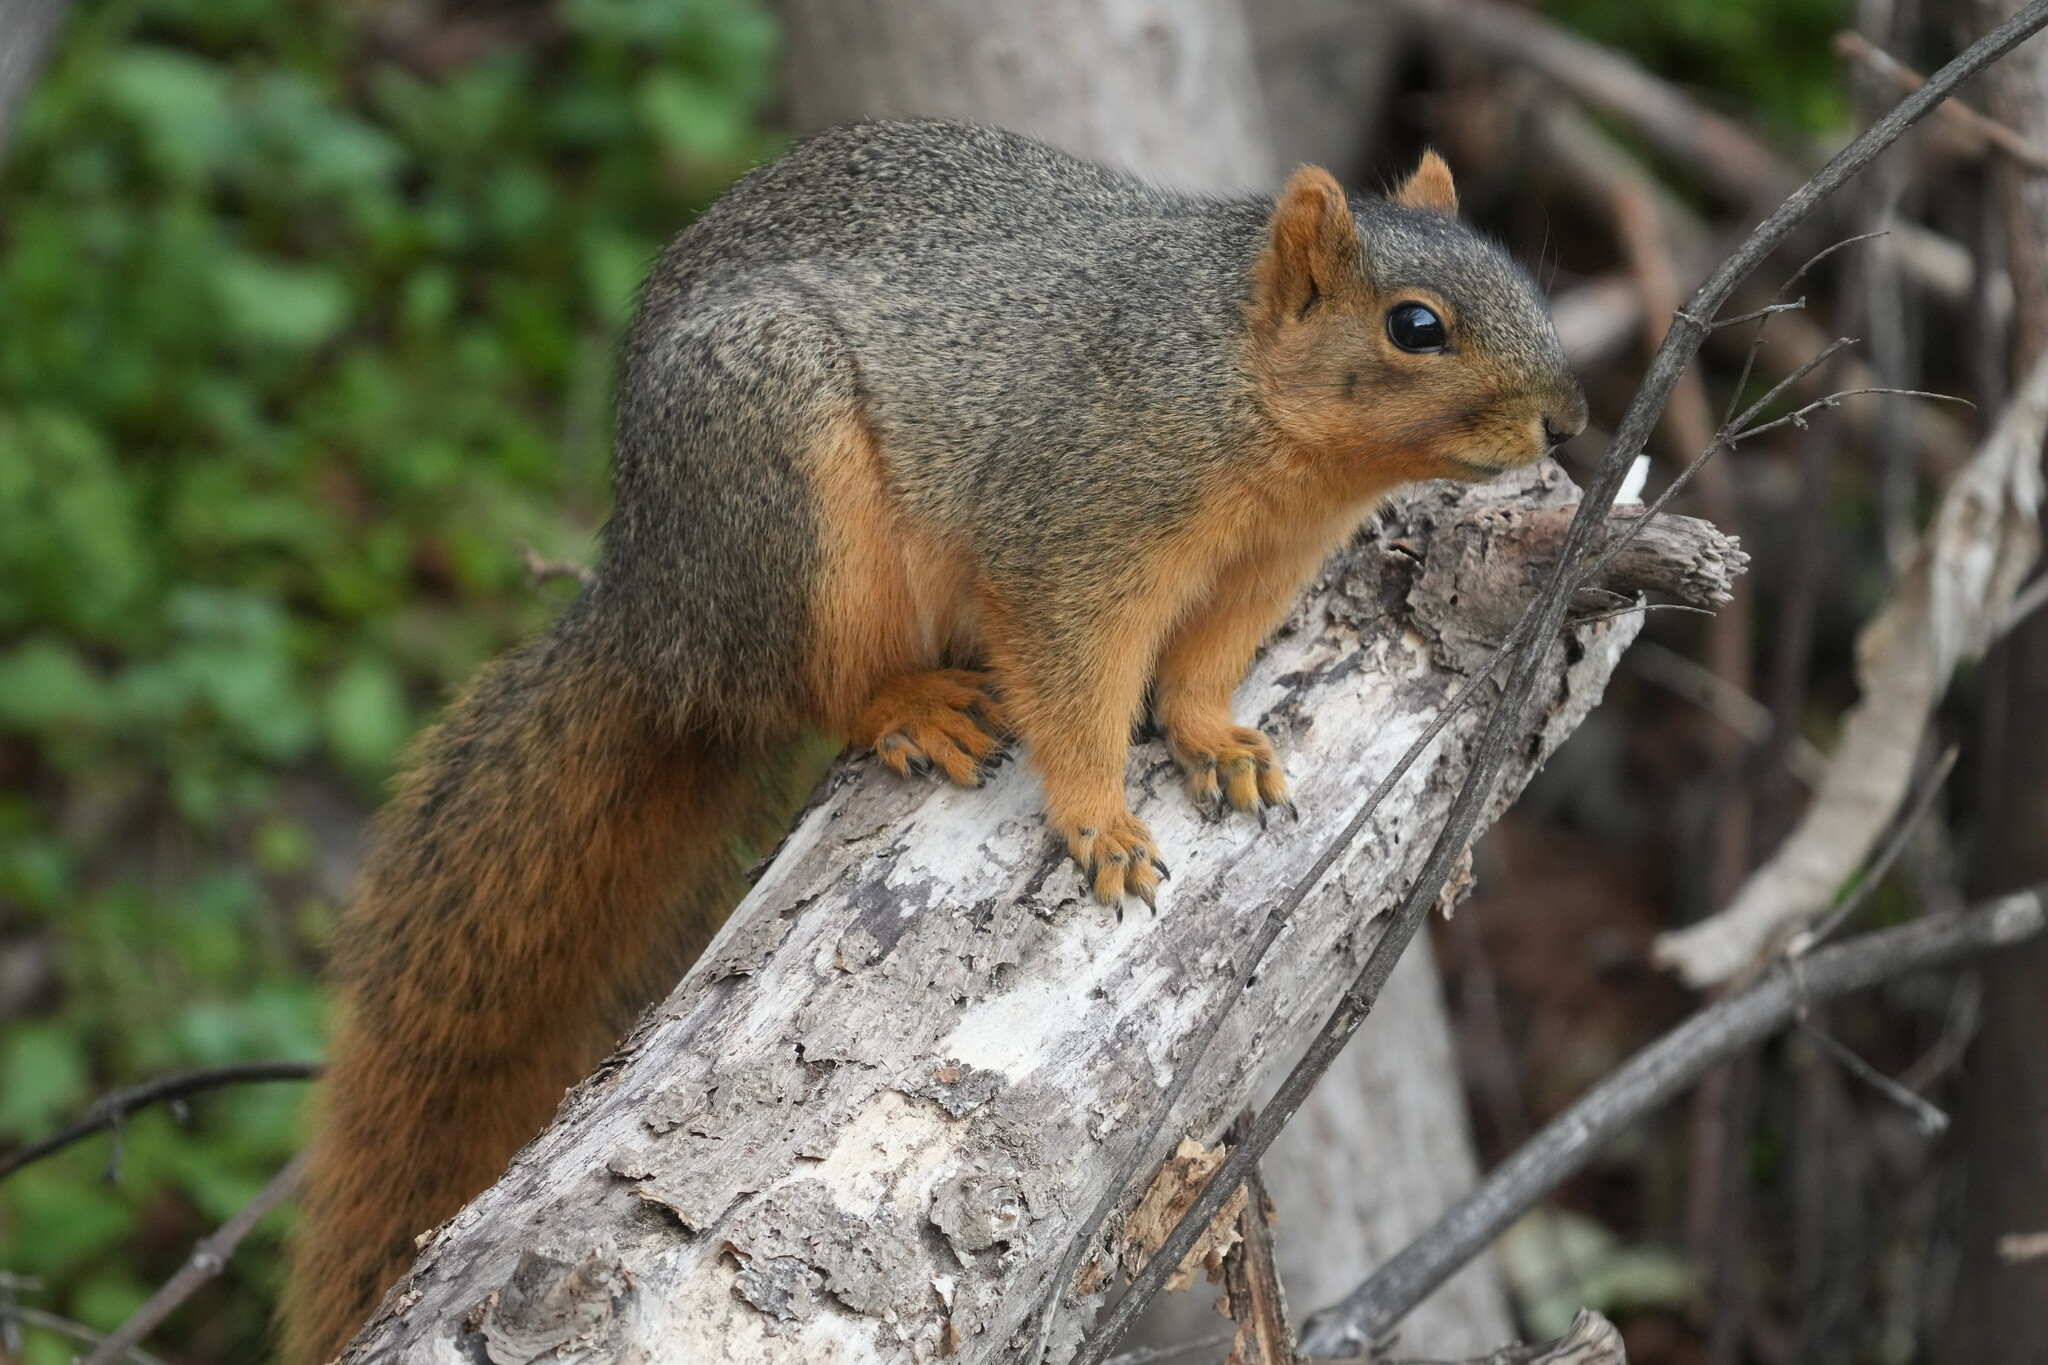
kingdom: Animalia
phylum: Chordata
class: Mammalia
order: Rodentia
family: Sciuridae
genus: Sciurus
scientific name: Sciurus niger
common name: Fox squirrel
